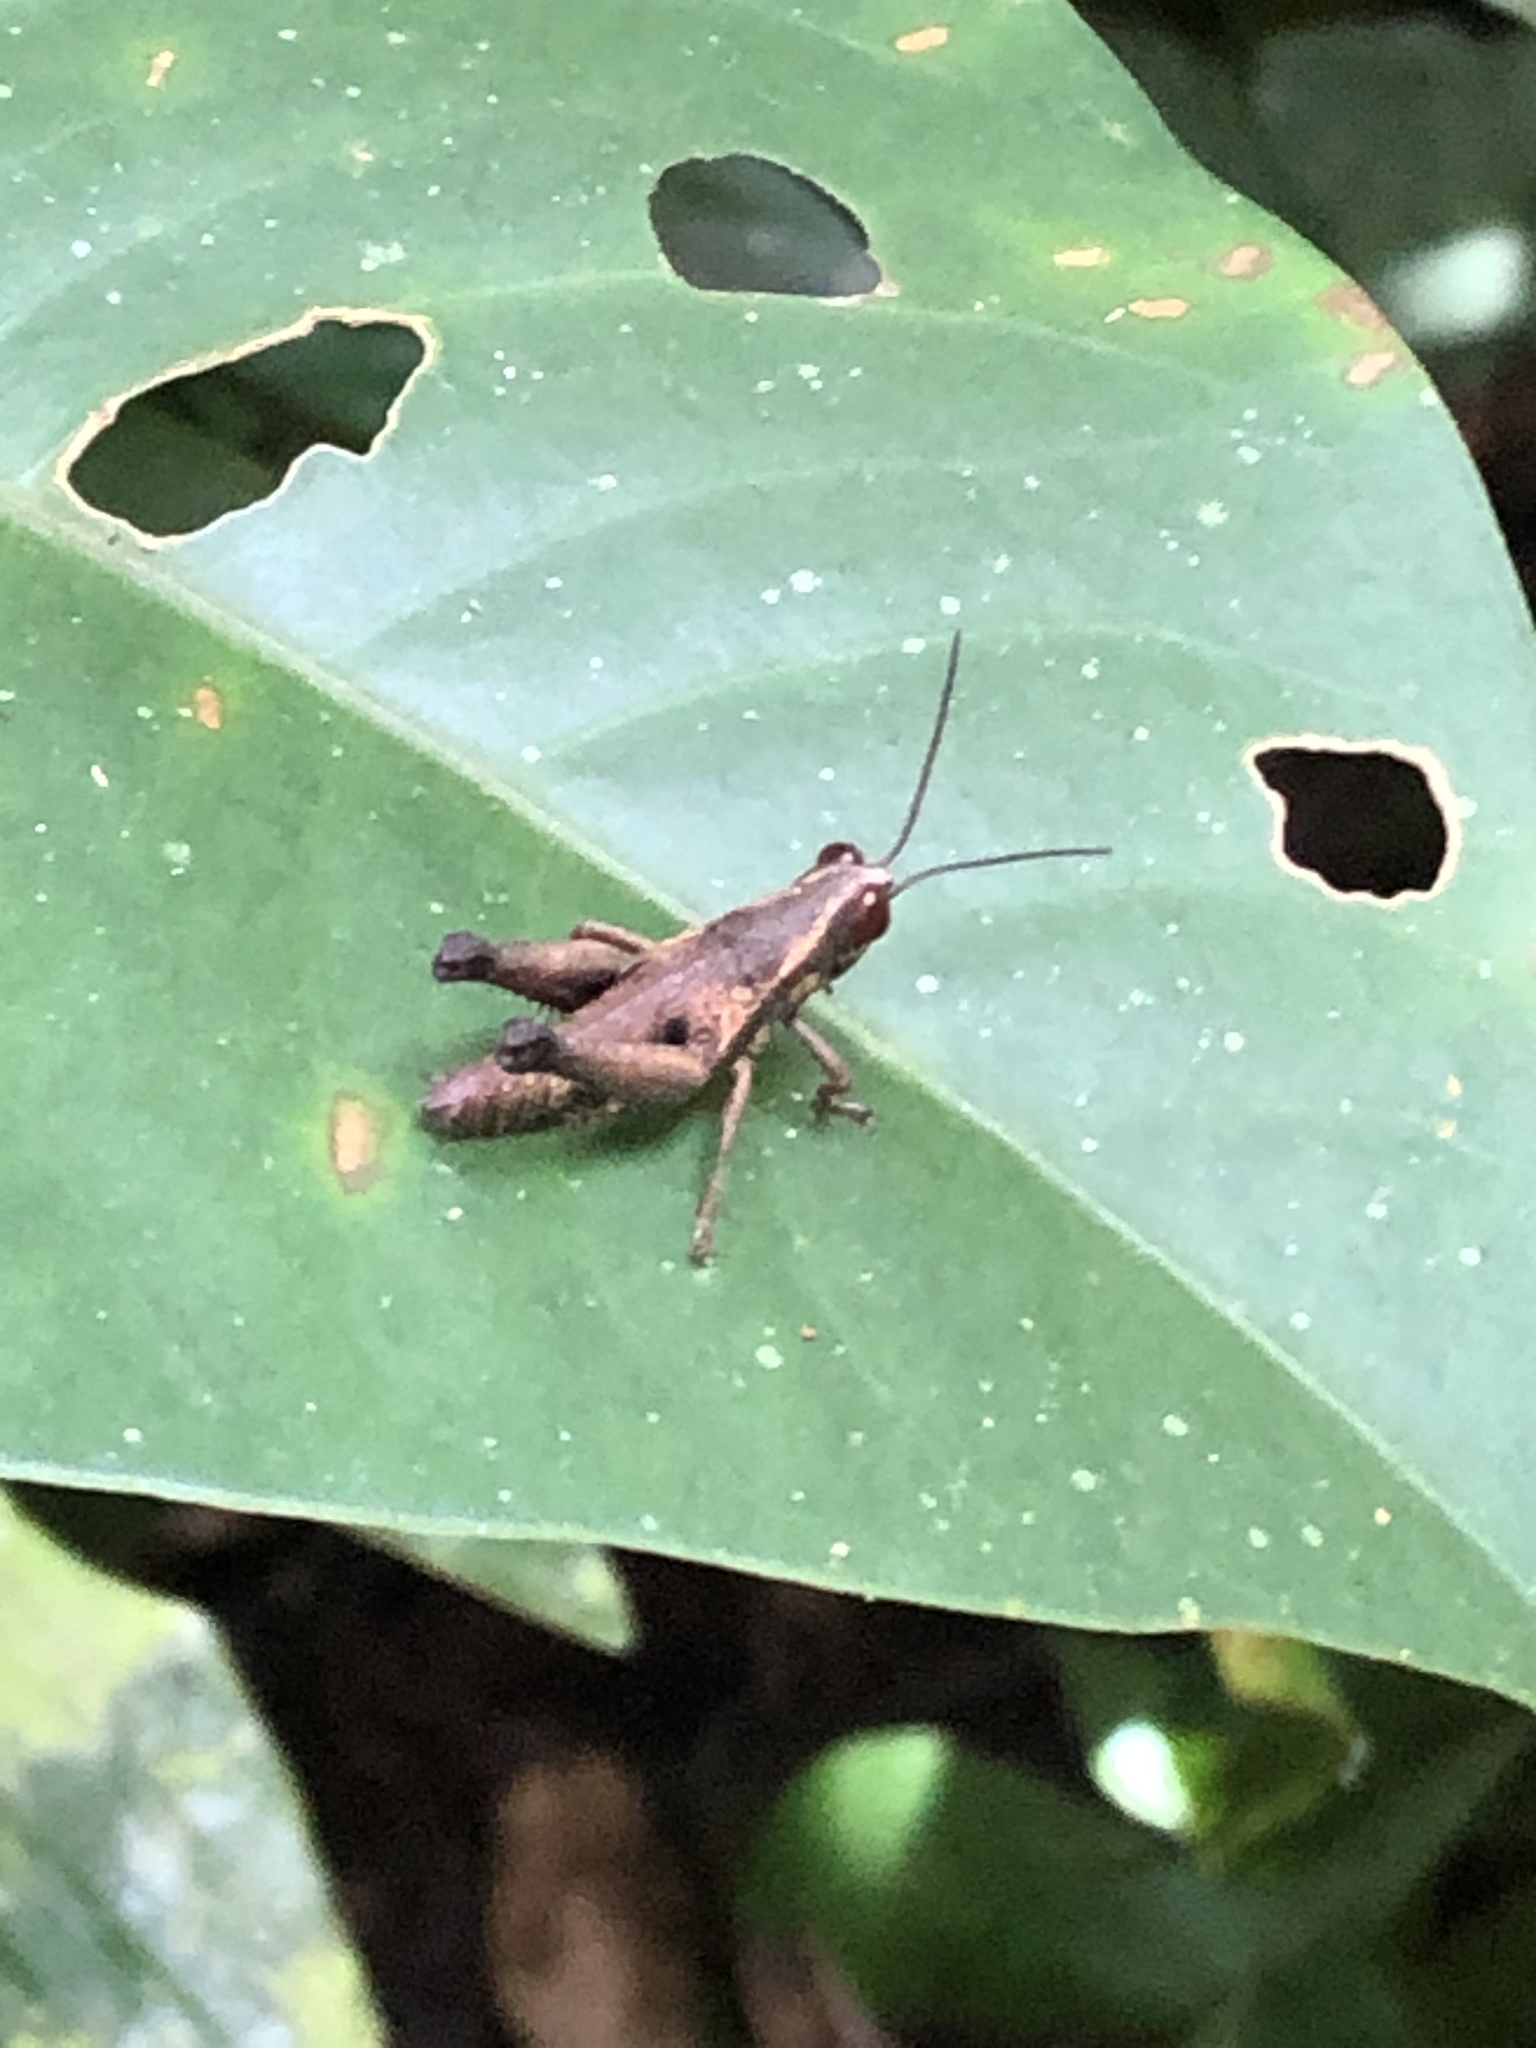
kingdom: Animalia
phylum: Arthropoda
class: Insecta
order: Orthoptera
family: Acrididae
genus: Stenelutracris
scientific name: Stenelutracris lignicola
